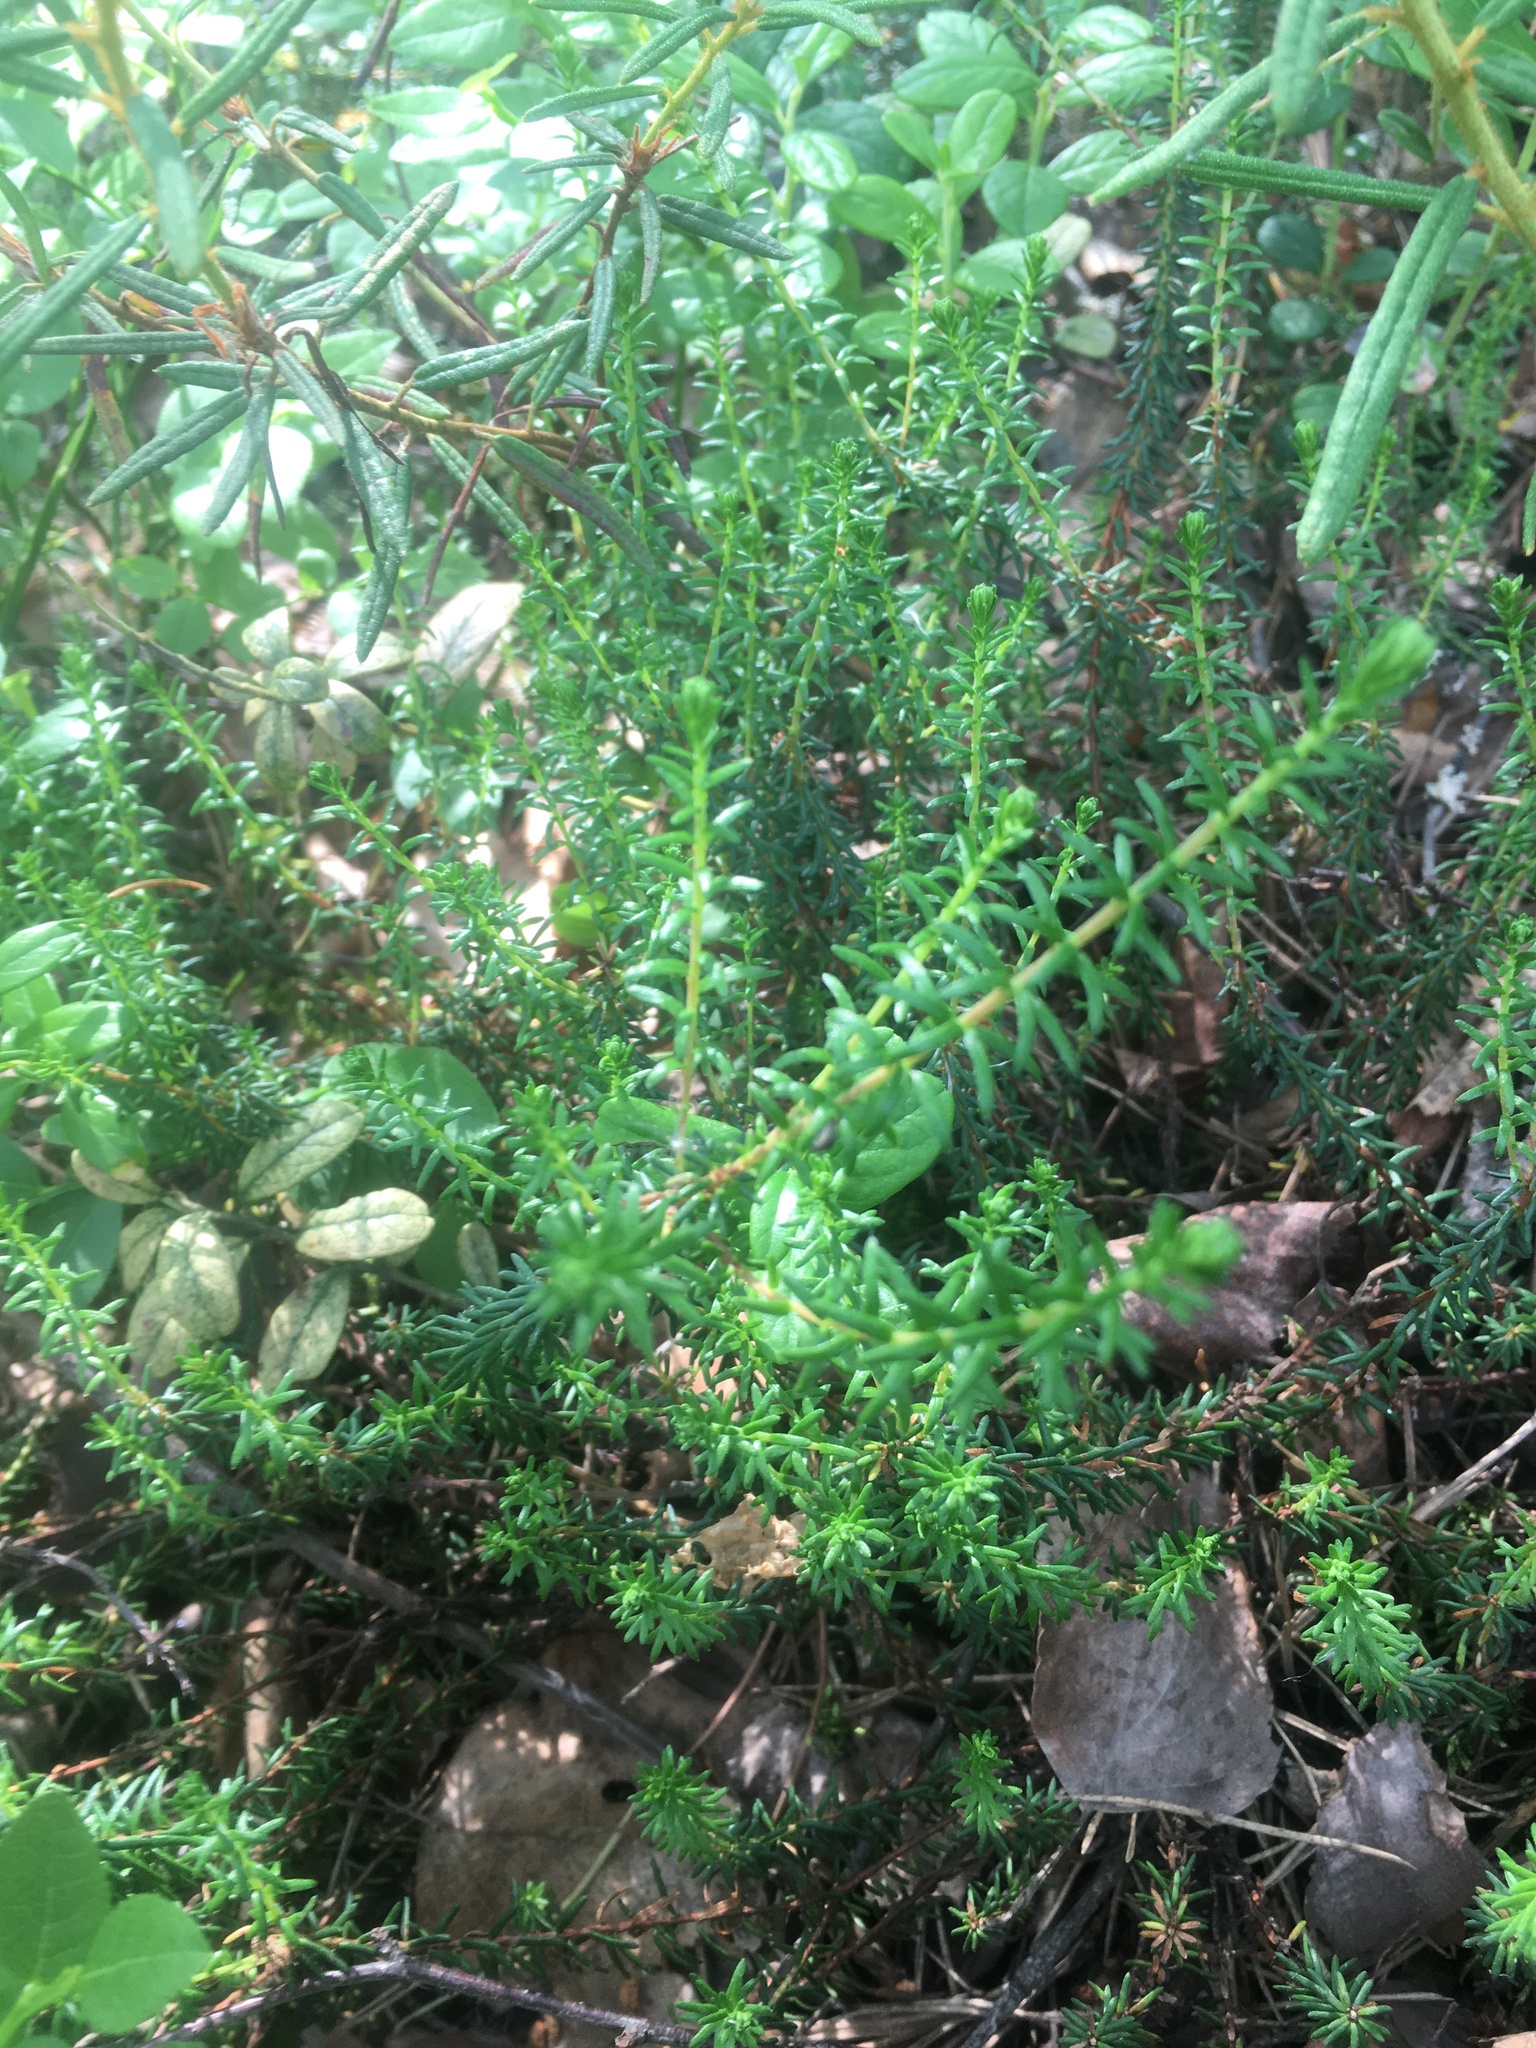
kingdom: Plantae
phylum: Tracheophyta
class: Magnoliopsida
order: Ericales
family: Ericaceae
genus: Empetrum
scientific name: Empetrum nigrum
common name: Black crowberry
